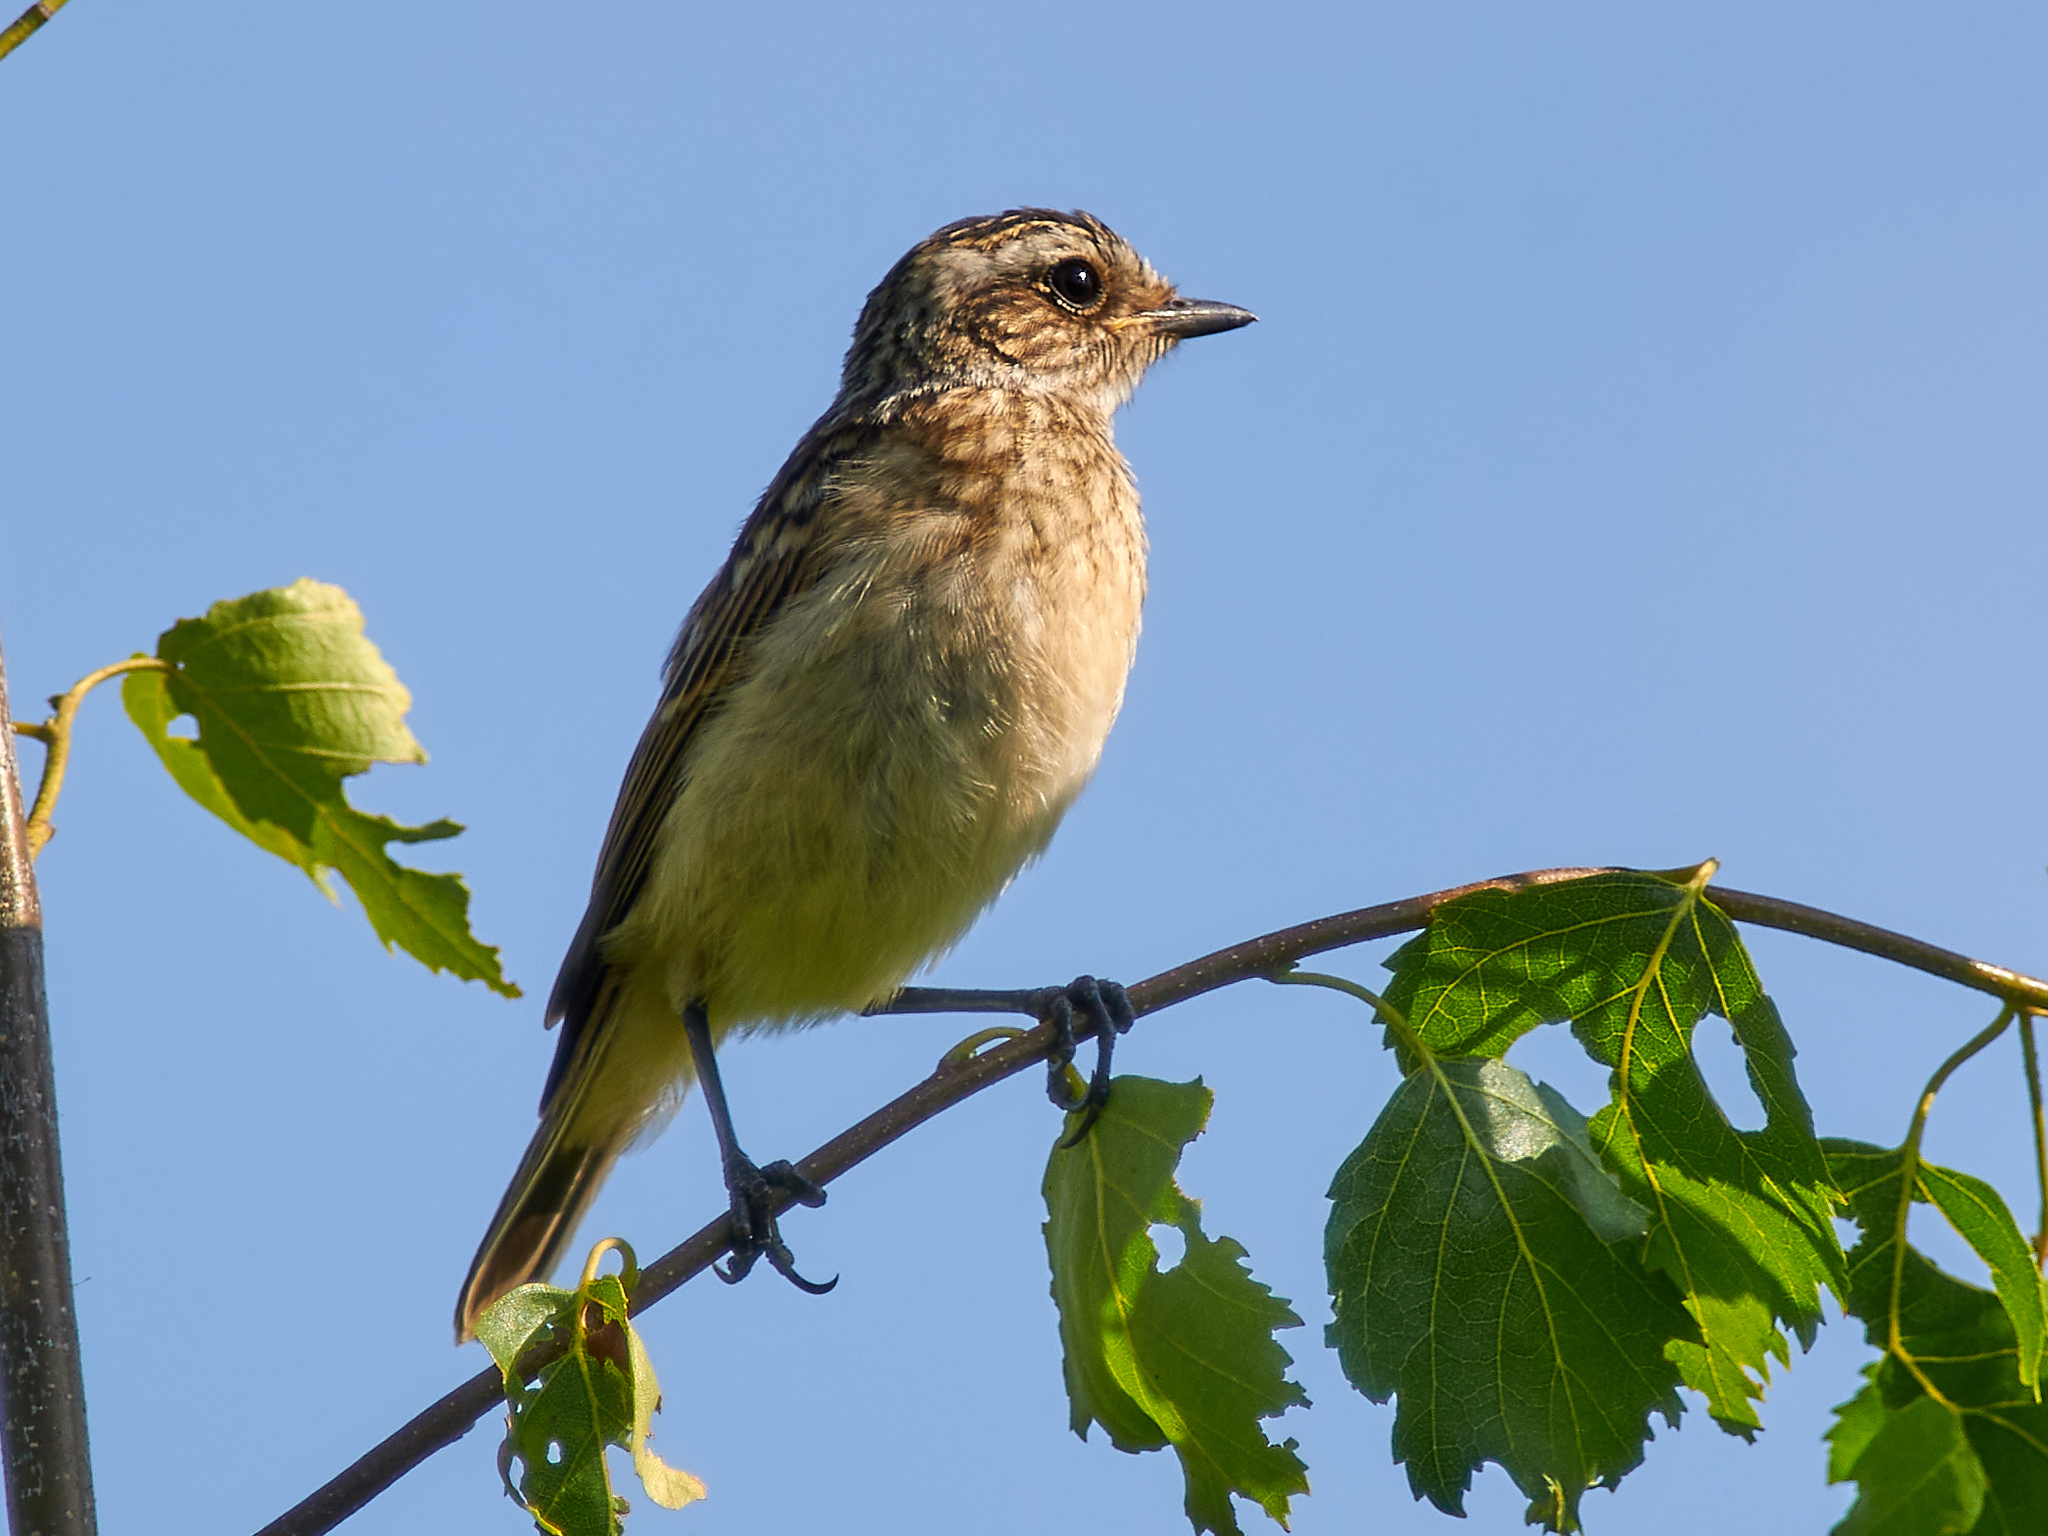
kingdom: Animalia
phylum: Chordata
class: Aves
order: Passeriformes
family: Muscicapidae
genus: Saxicola
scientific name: Saxicola rubetra
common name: Whinchat
